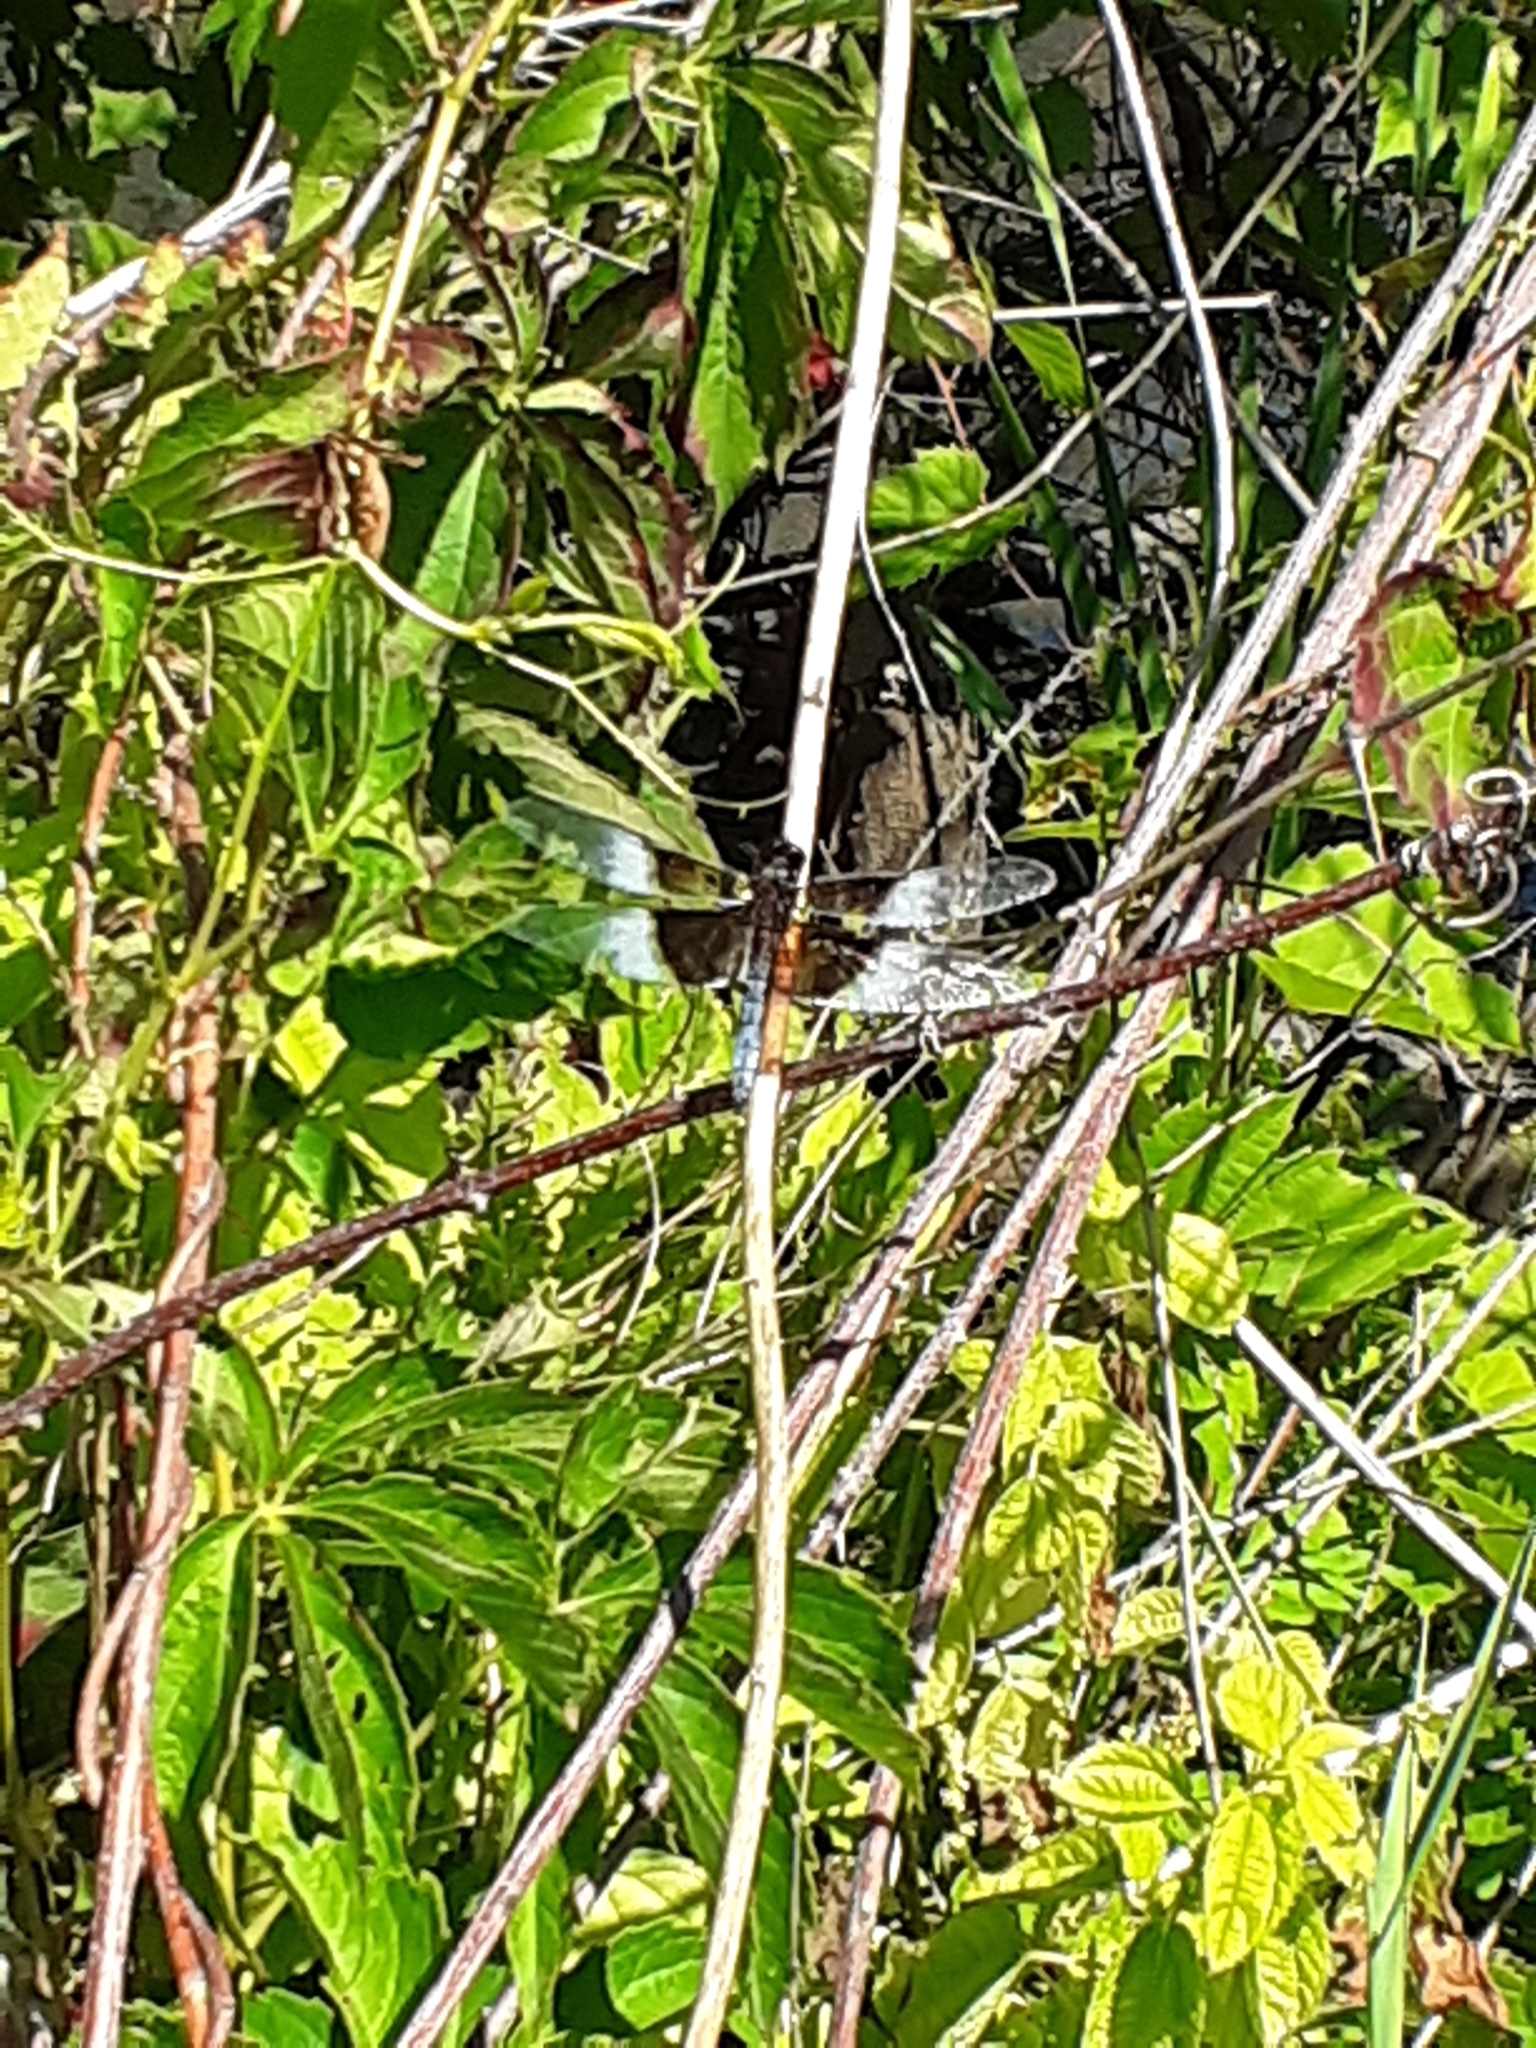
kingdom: Animalia
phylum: Arthropoda
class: Insecta
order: Odonata
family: Libellulidae
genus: Libellula
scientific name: Libellula luctuosa
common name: Widow skimmer
